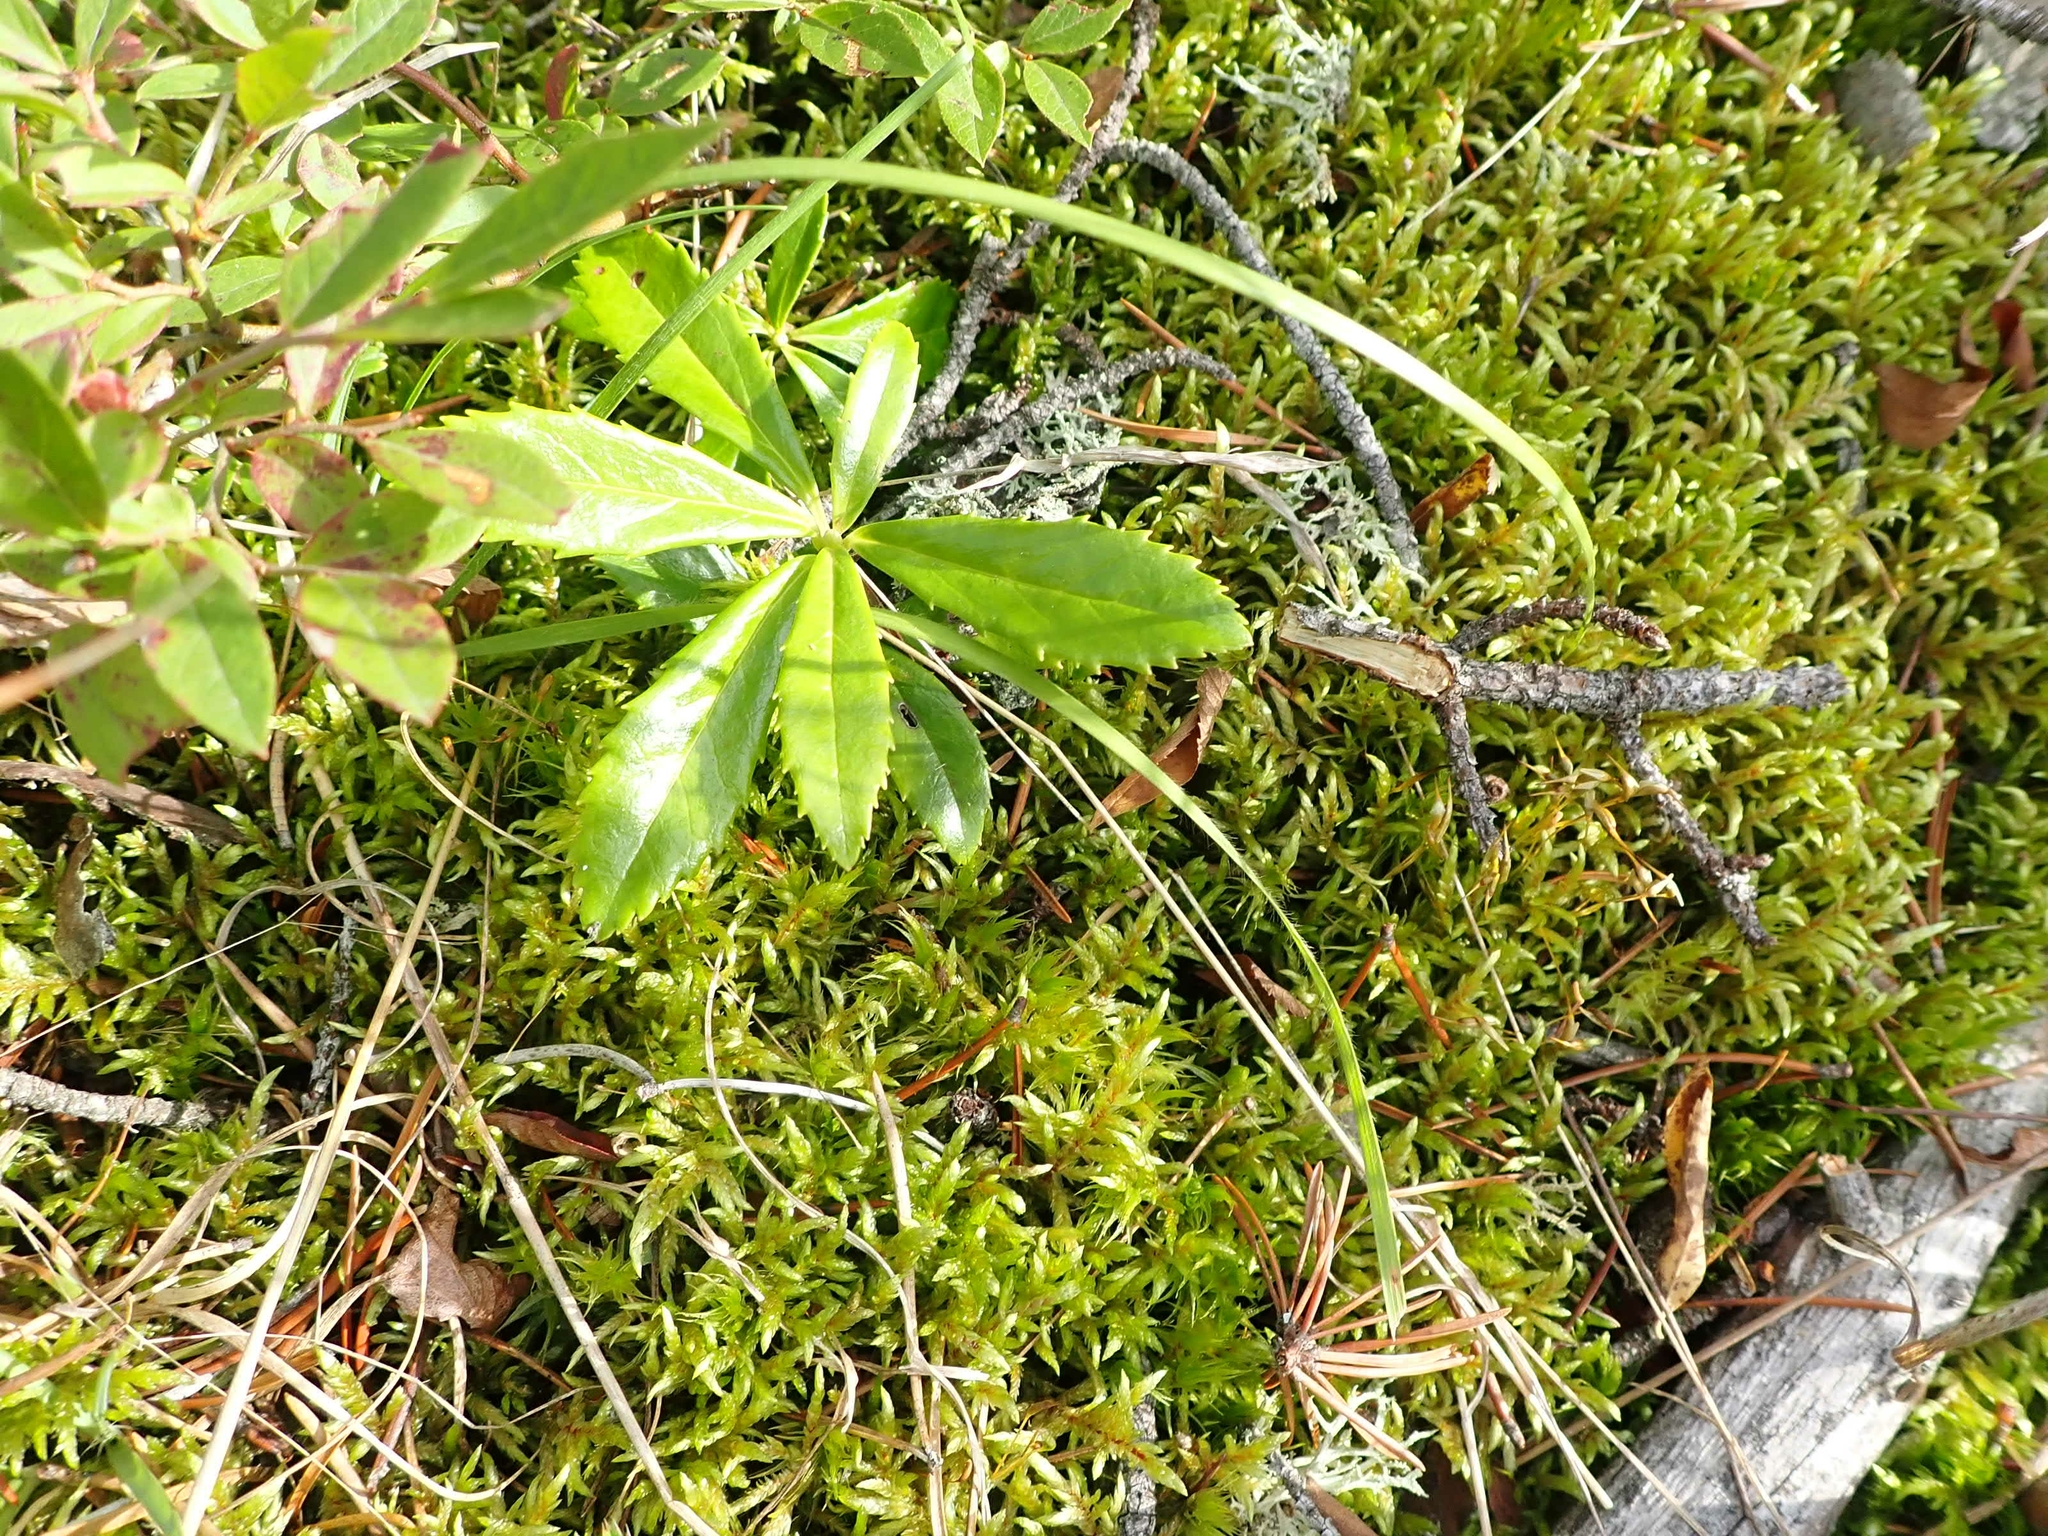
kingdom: Plantae
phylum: Tracheophyta
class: Magnoliopsida
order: Ericales
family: Ericaceae
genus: Chimaphila
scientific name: Chimaphila umbellata
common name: Pipsissewa
